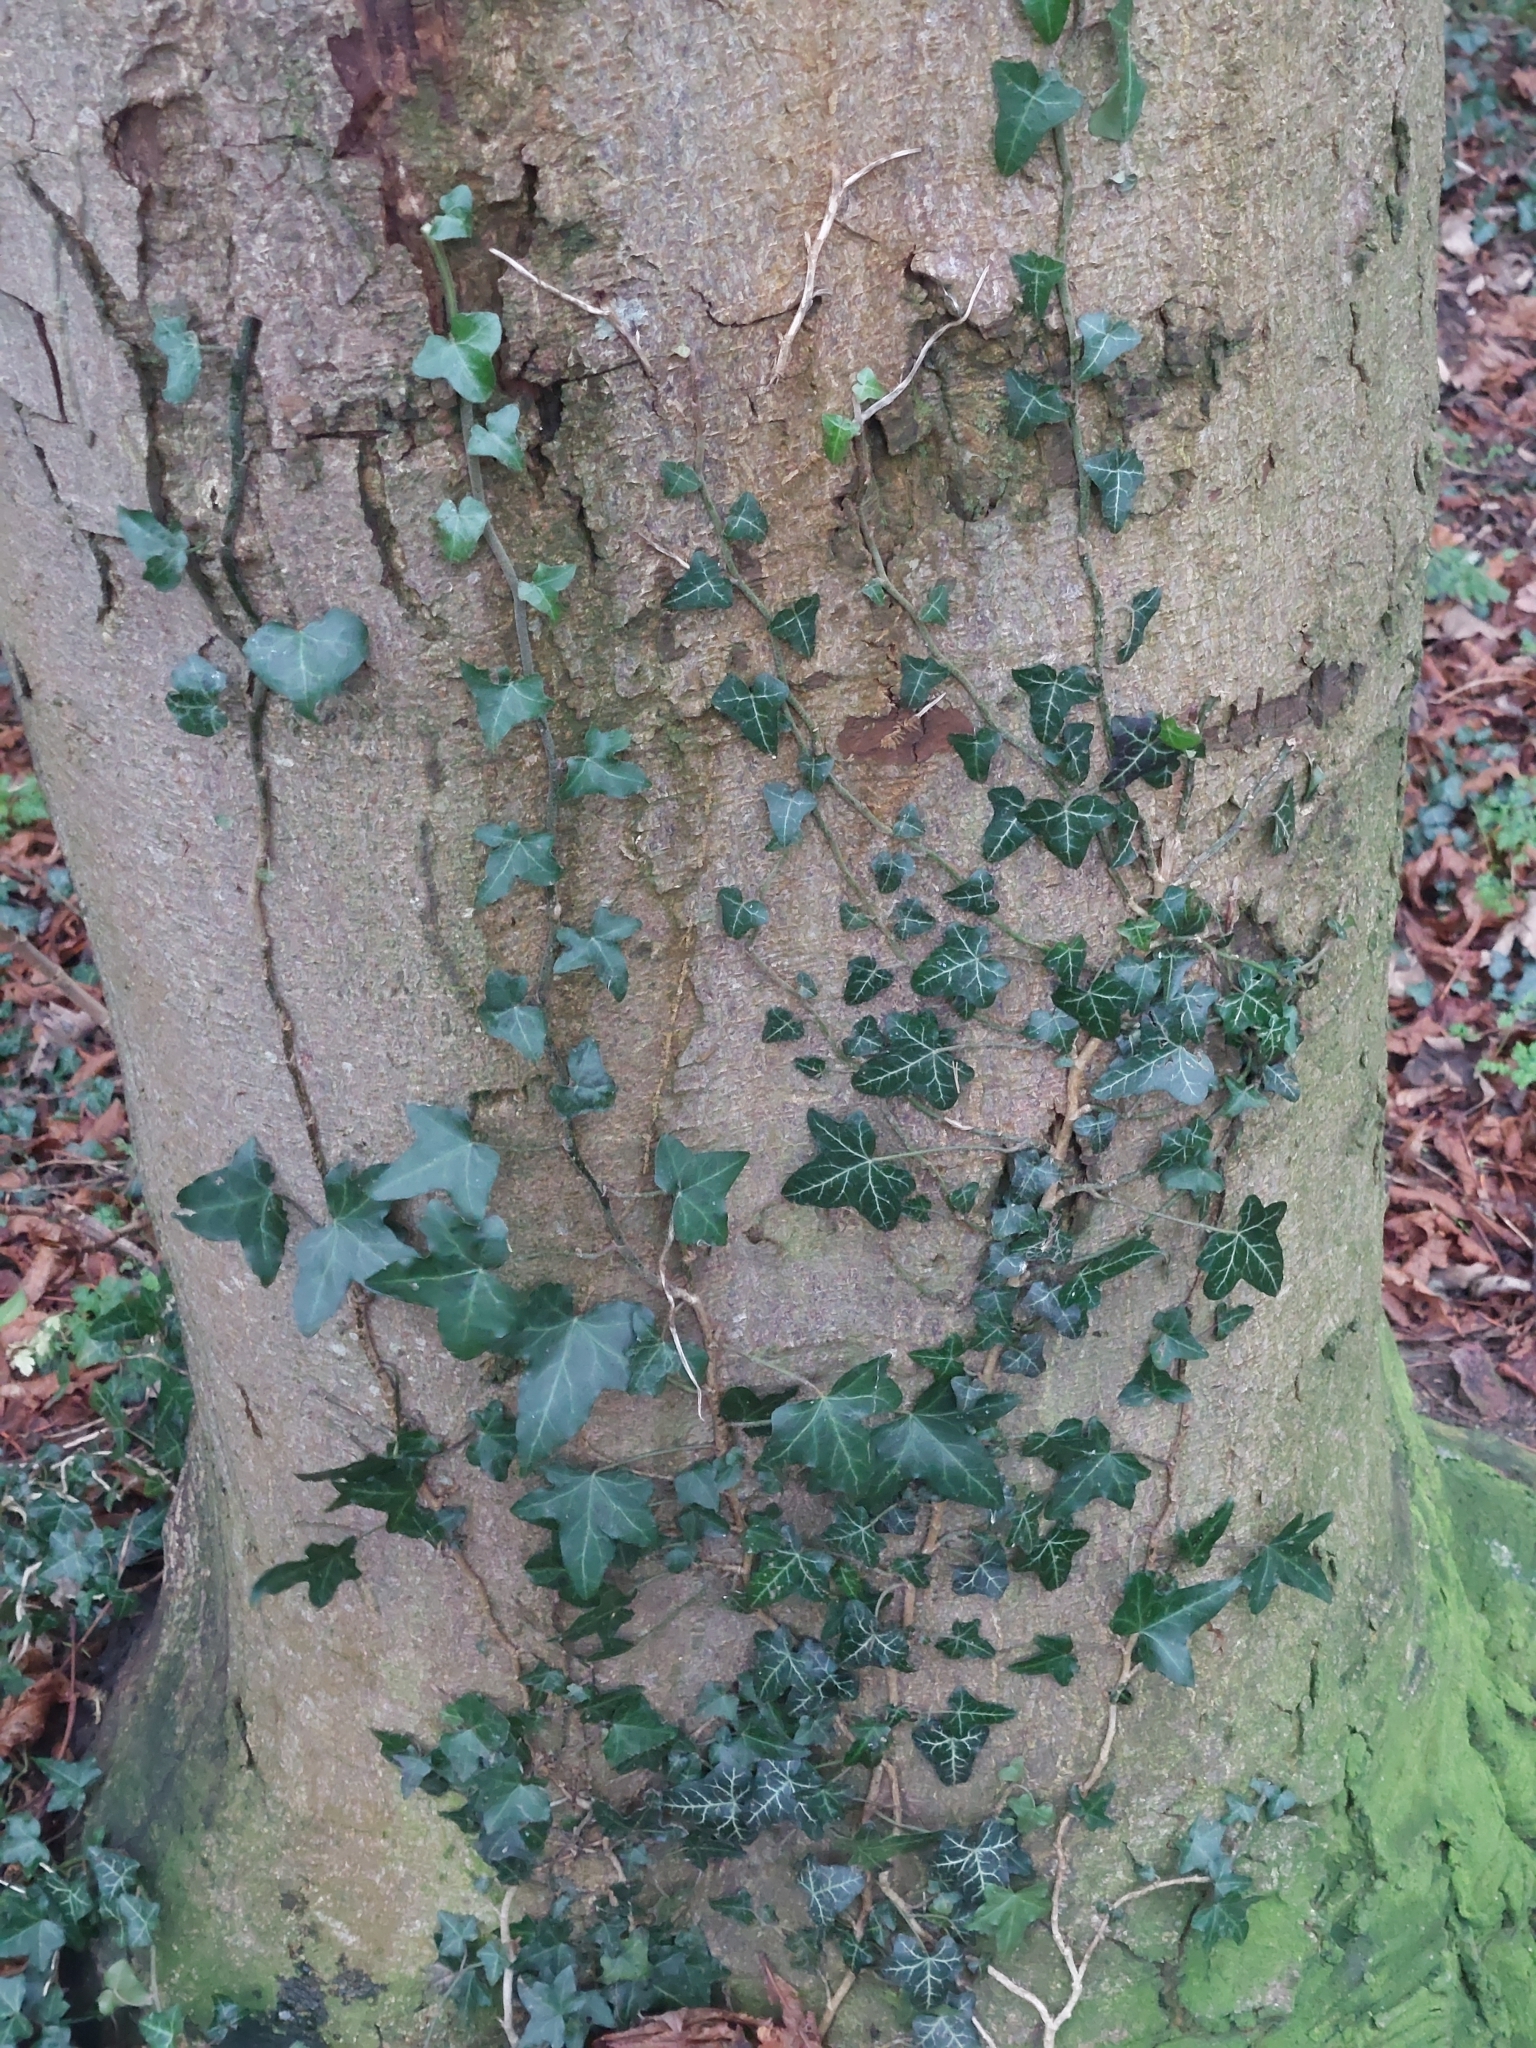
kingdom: Plantae
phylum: Tracheophyta
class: Magnoliopsida
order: Apiales
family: Araliaceae
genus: Hedera
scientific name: Hedera helix
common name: Ivy
